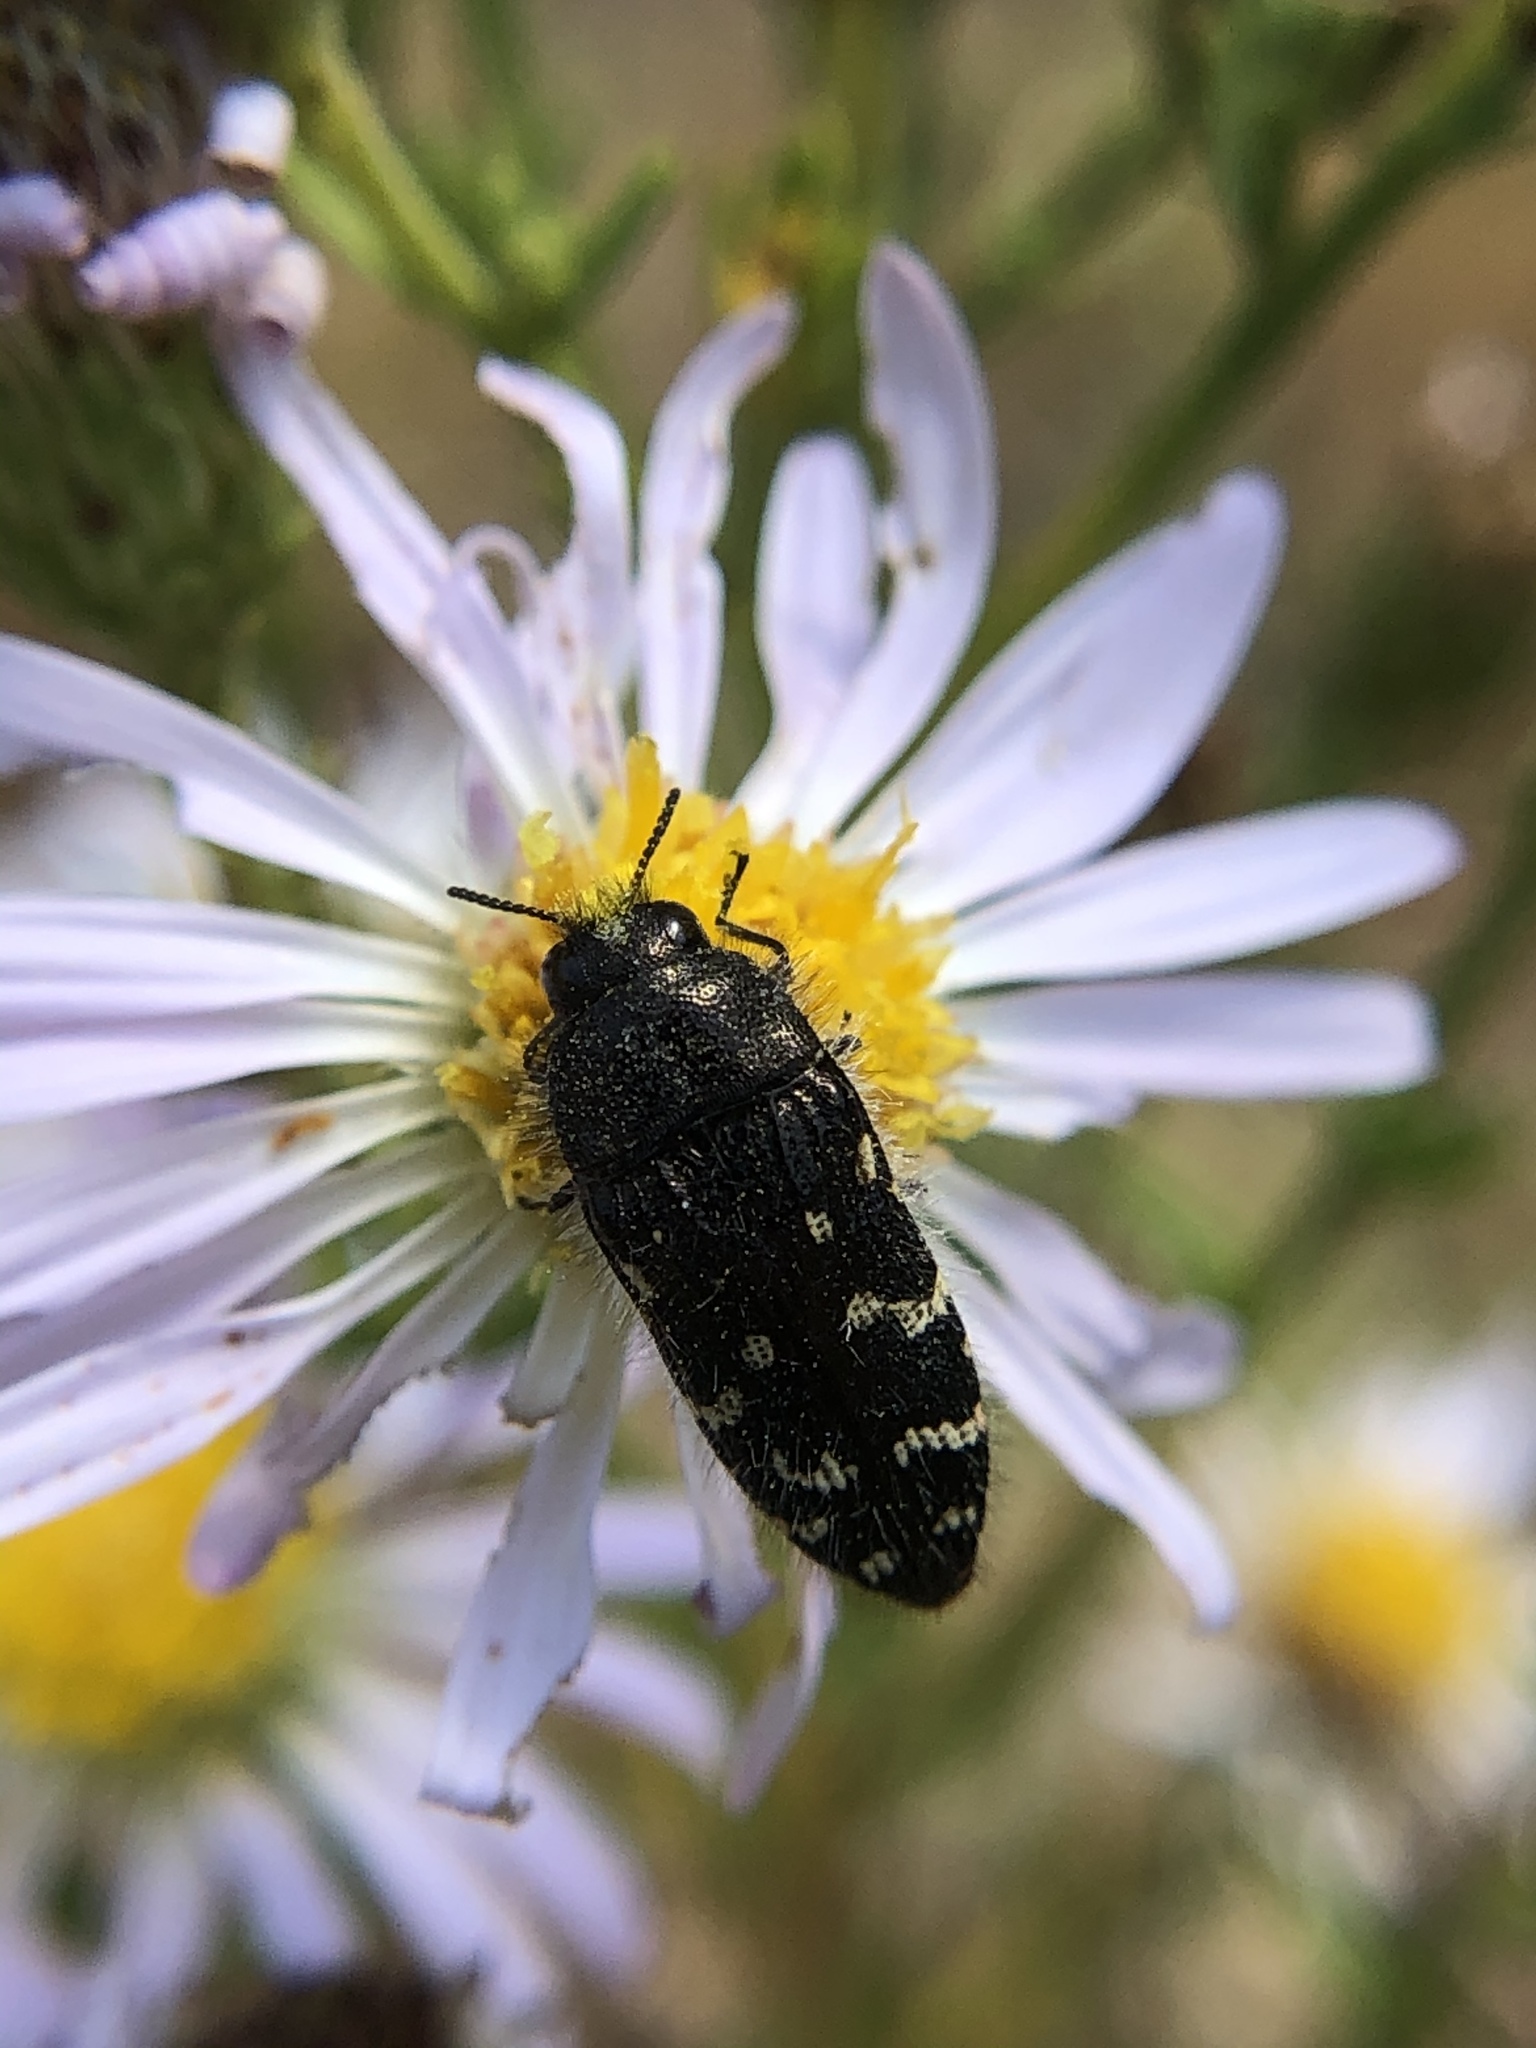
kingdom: Animalia
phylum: Arthropoda
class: Insecta
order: Coleoptera
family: Buprestidae
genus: Acmaeodera
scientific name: Acmaeodera rubronotata
